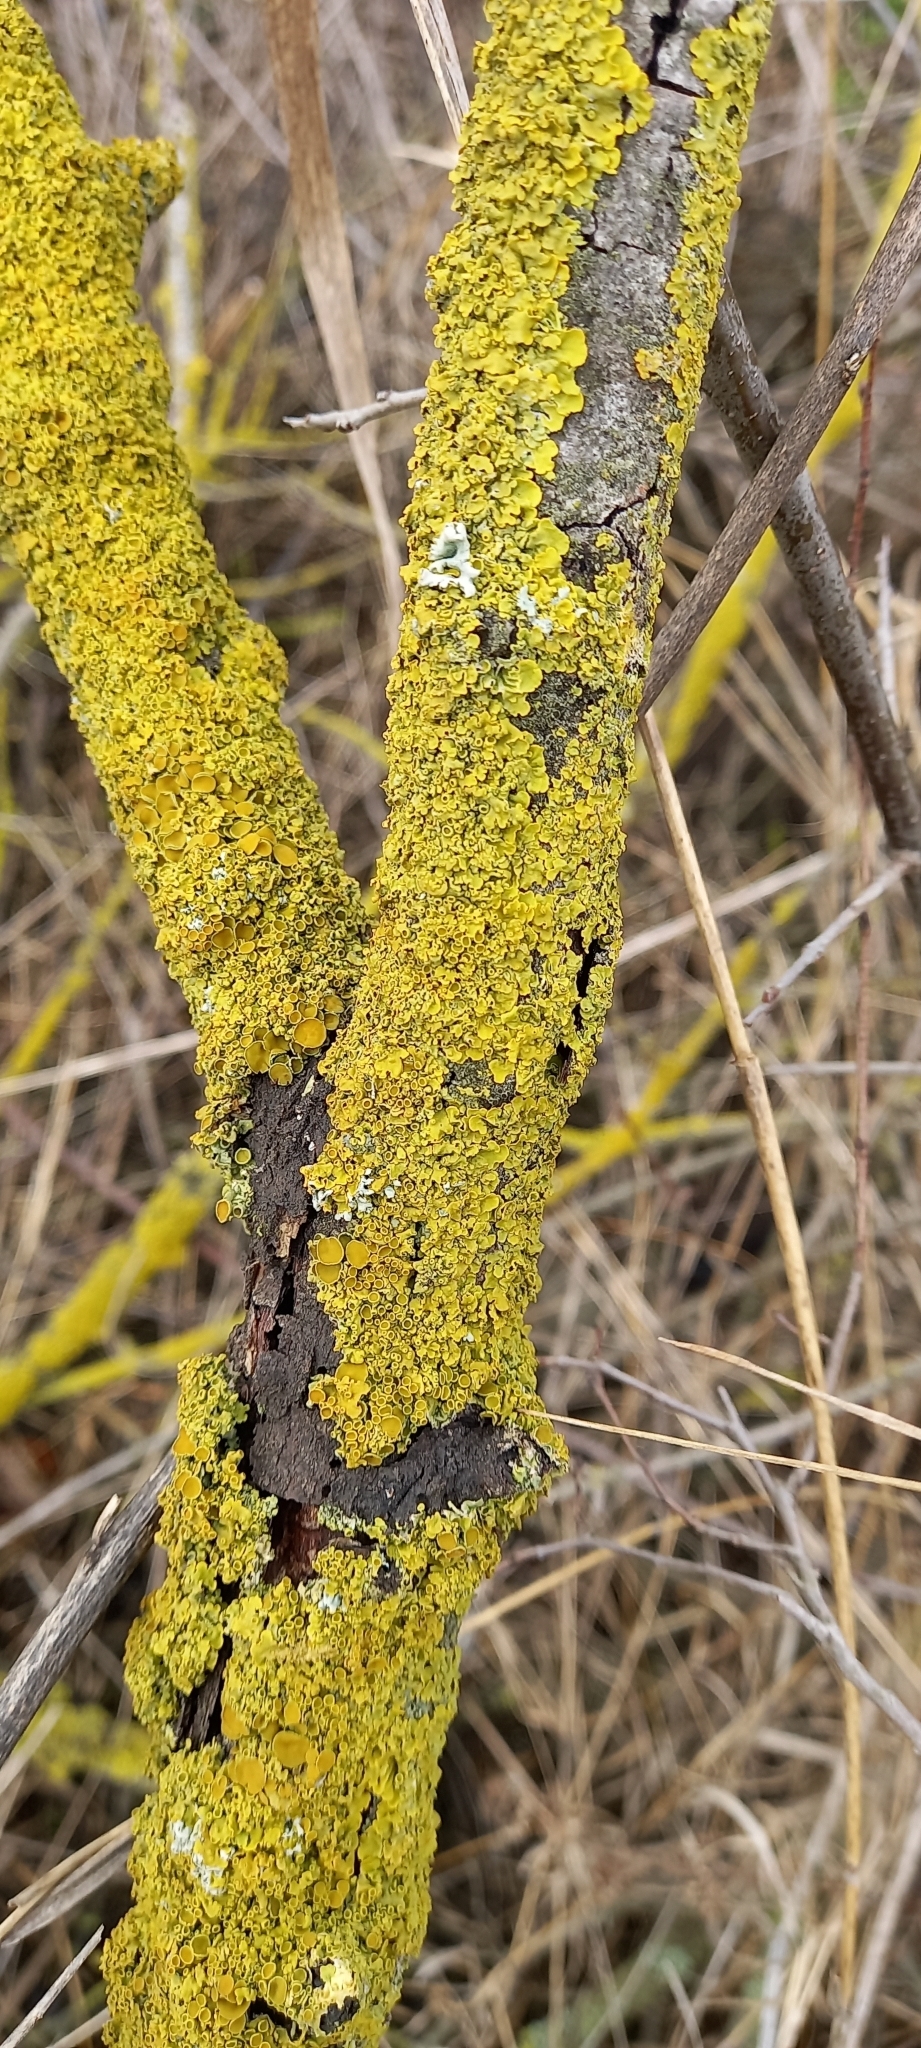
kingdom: Fungi
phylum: Ascomycota
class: Lecanoromycetes
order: Teloschistales
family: Teloschistaceae
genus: Xanthoria
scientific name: Xanthoria parietina
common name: Common orange lichen
